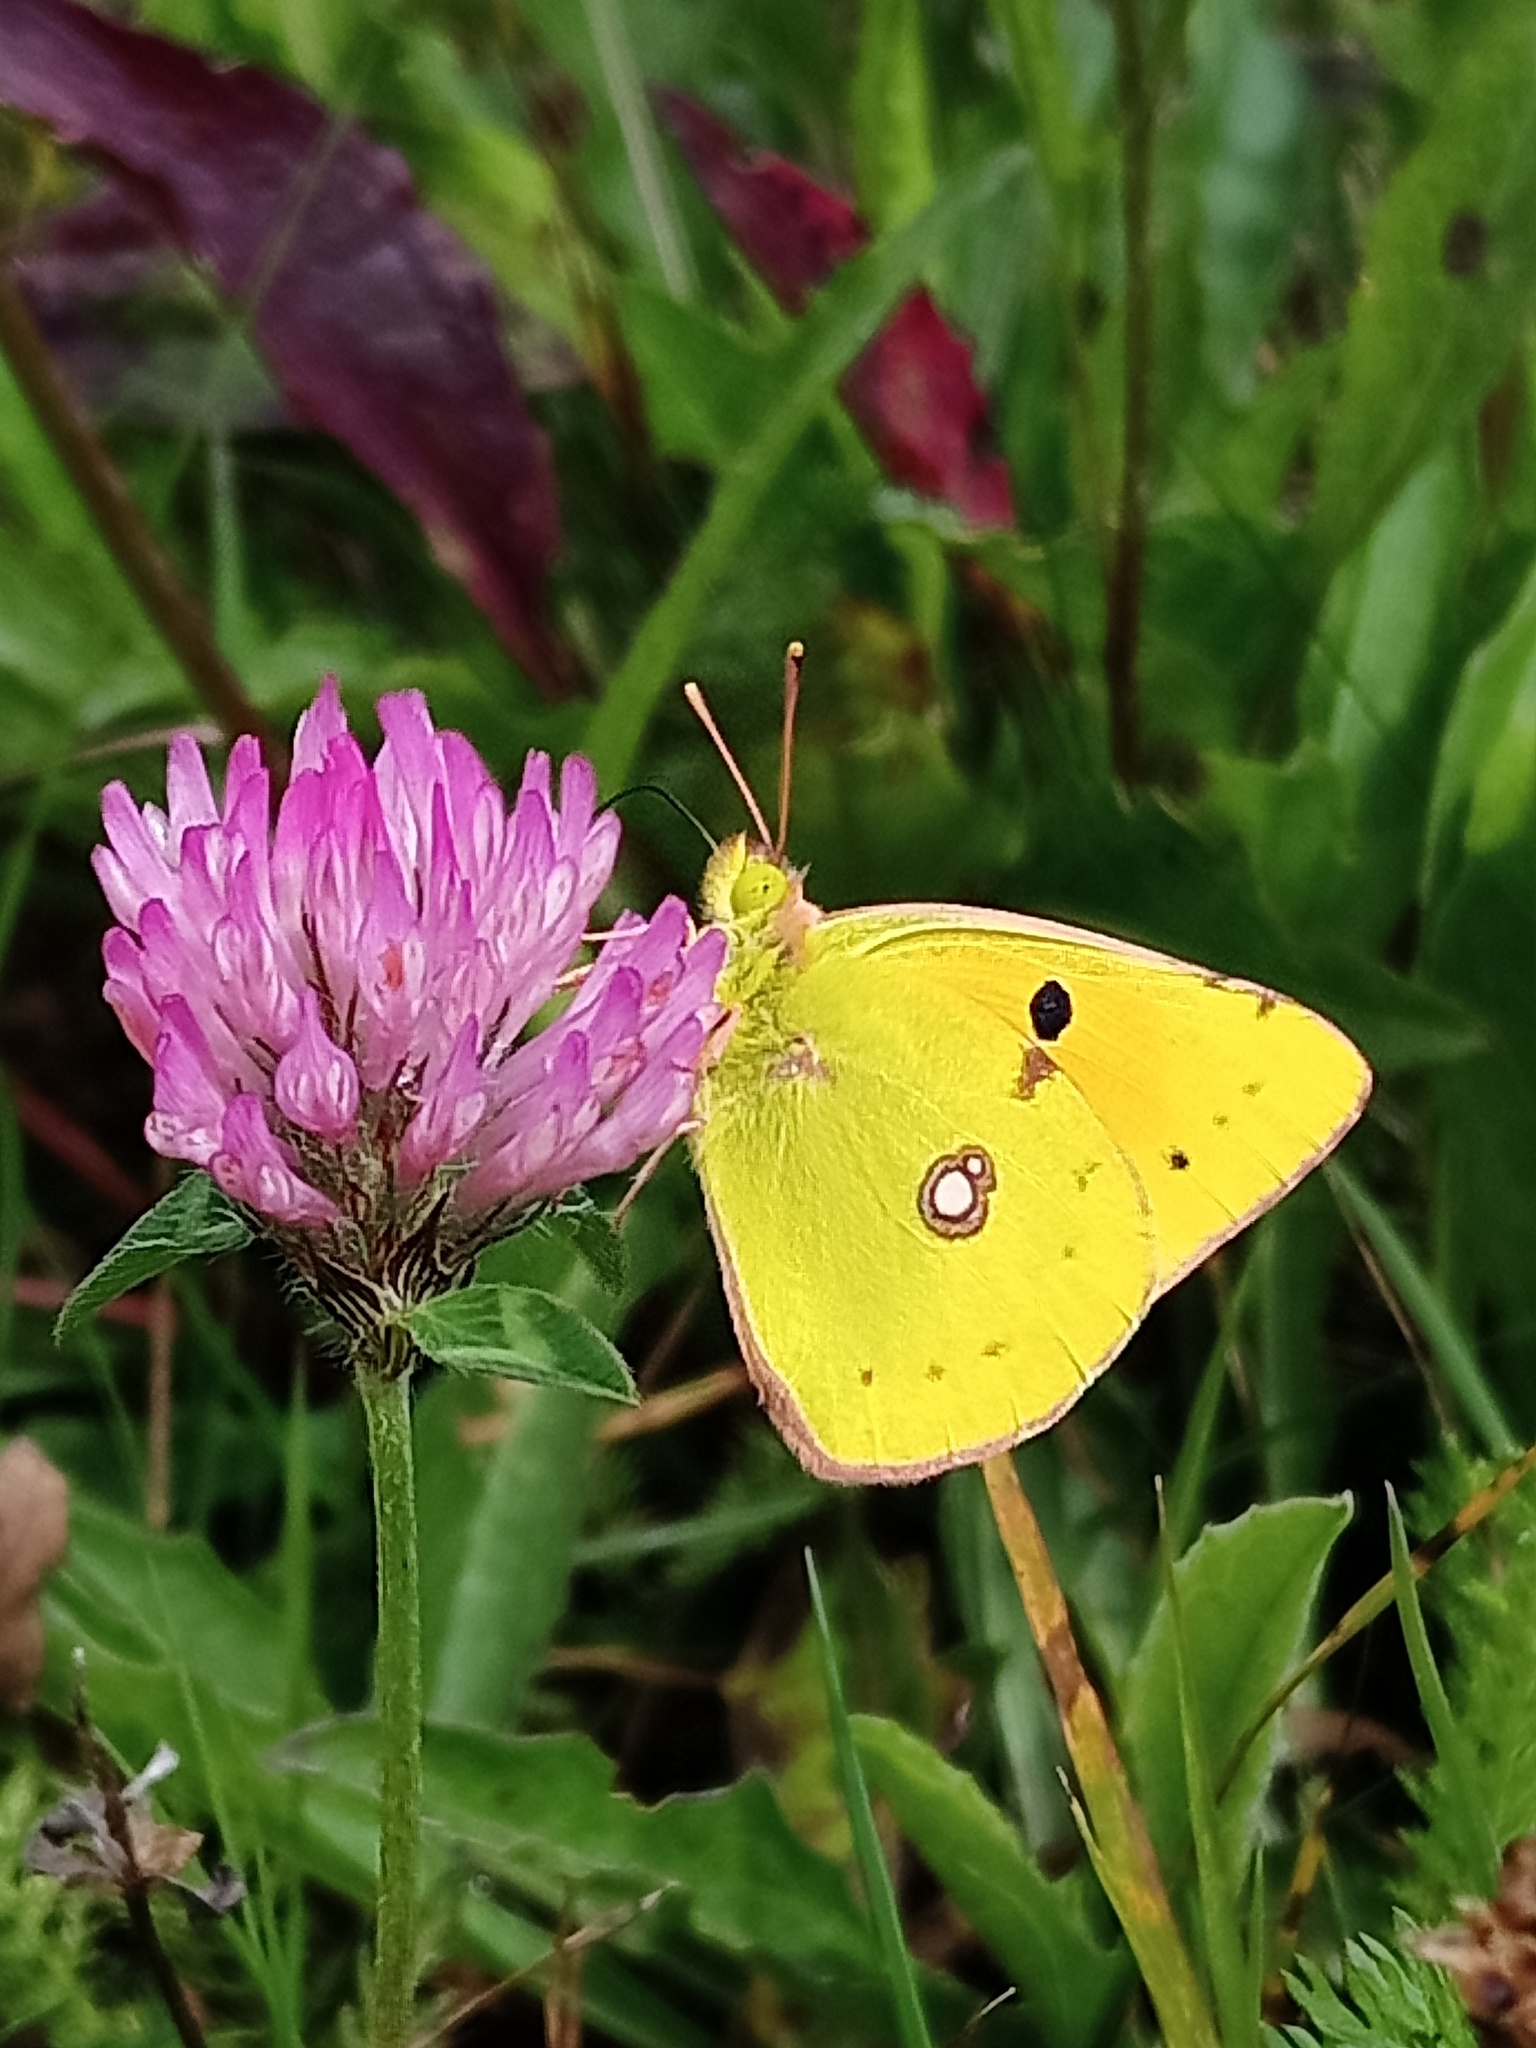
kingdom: Animalia
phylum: Arthropoda
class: Insecta
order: Lepidoptera
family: Pieridae
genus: Colias
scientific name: Colias croceus
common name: Clouded yellow
